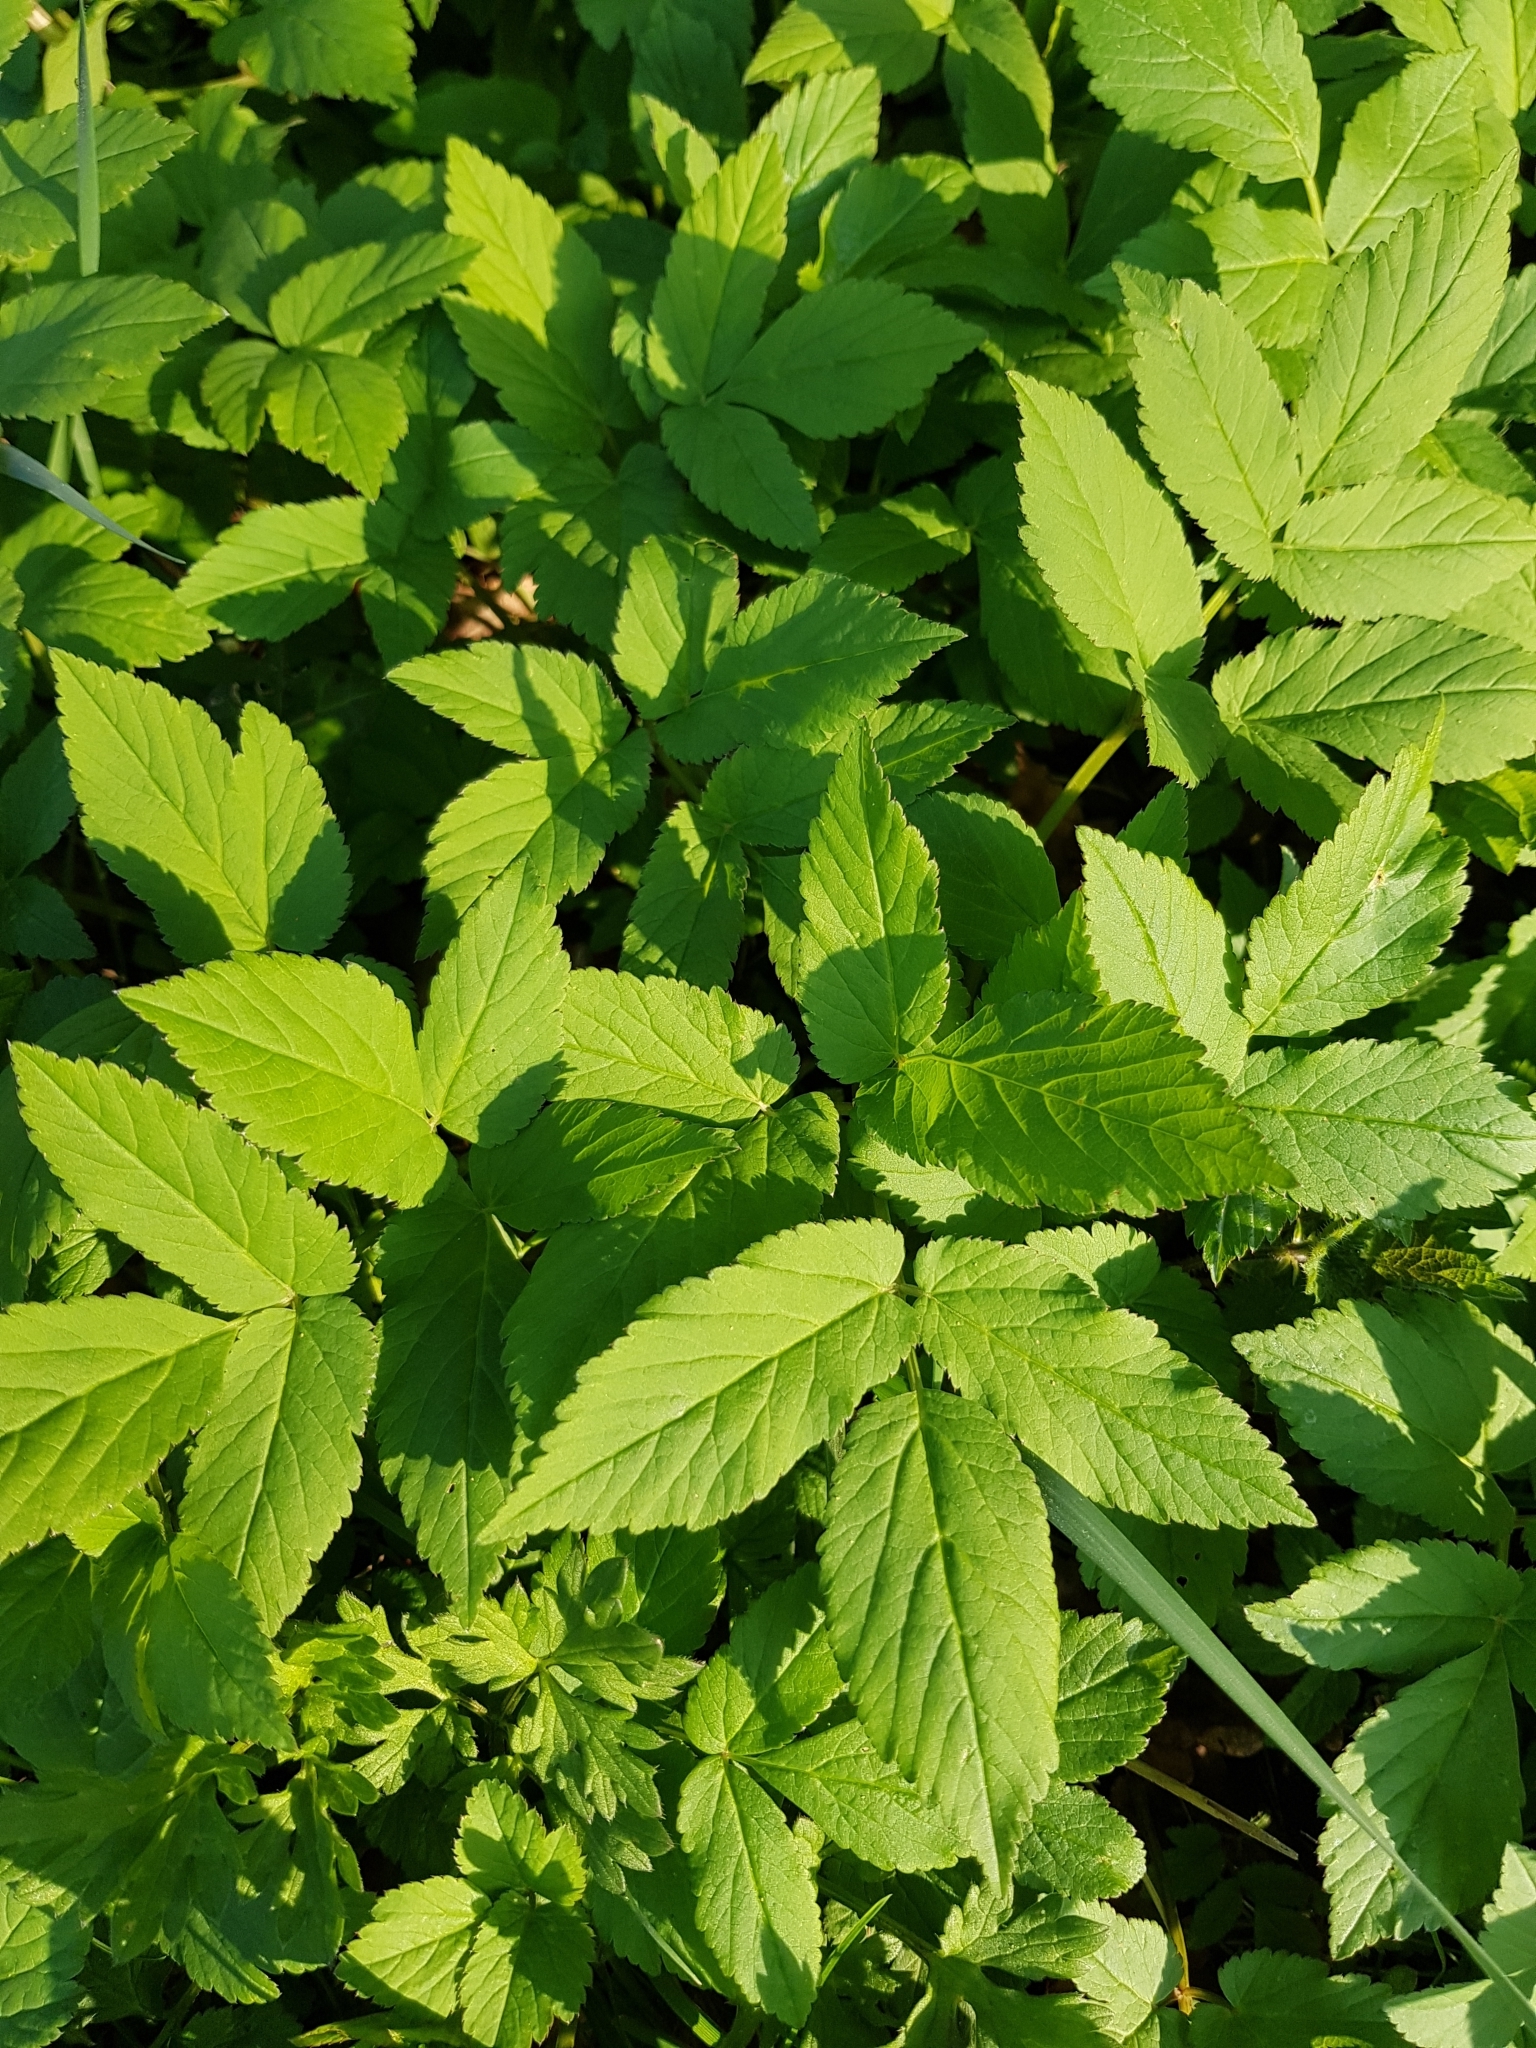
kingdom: Plantae
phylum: Tracheophyta
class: Magnoliopsida
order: Apiales
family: Apiaceae
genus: Aegopodium
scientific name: Aegopodium podagraria
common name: Ground-elder
